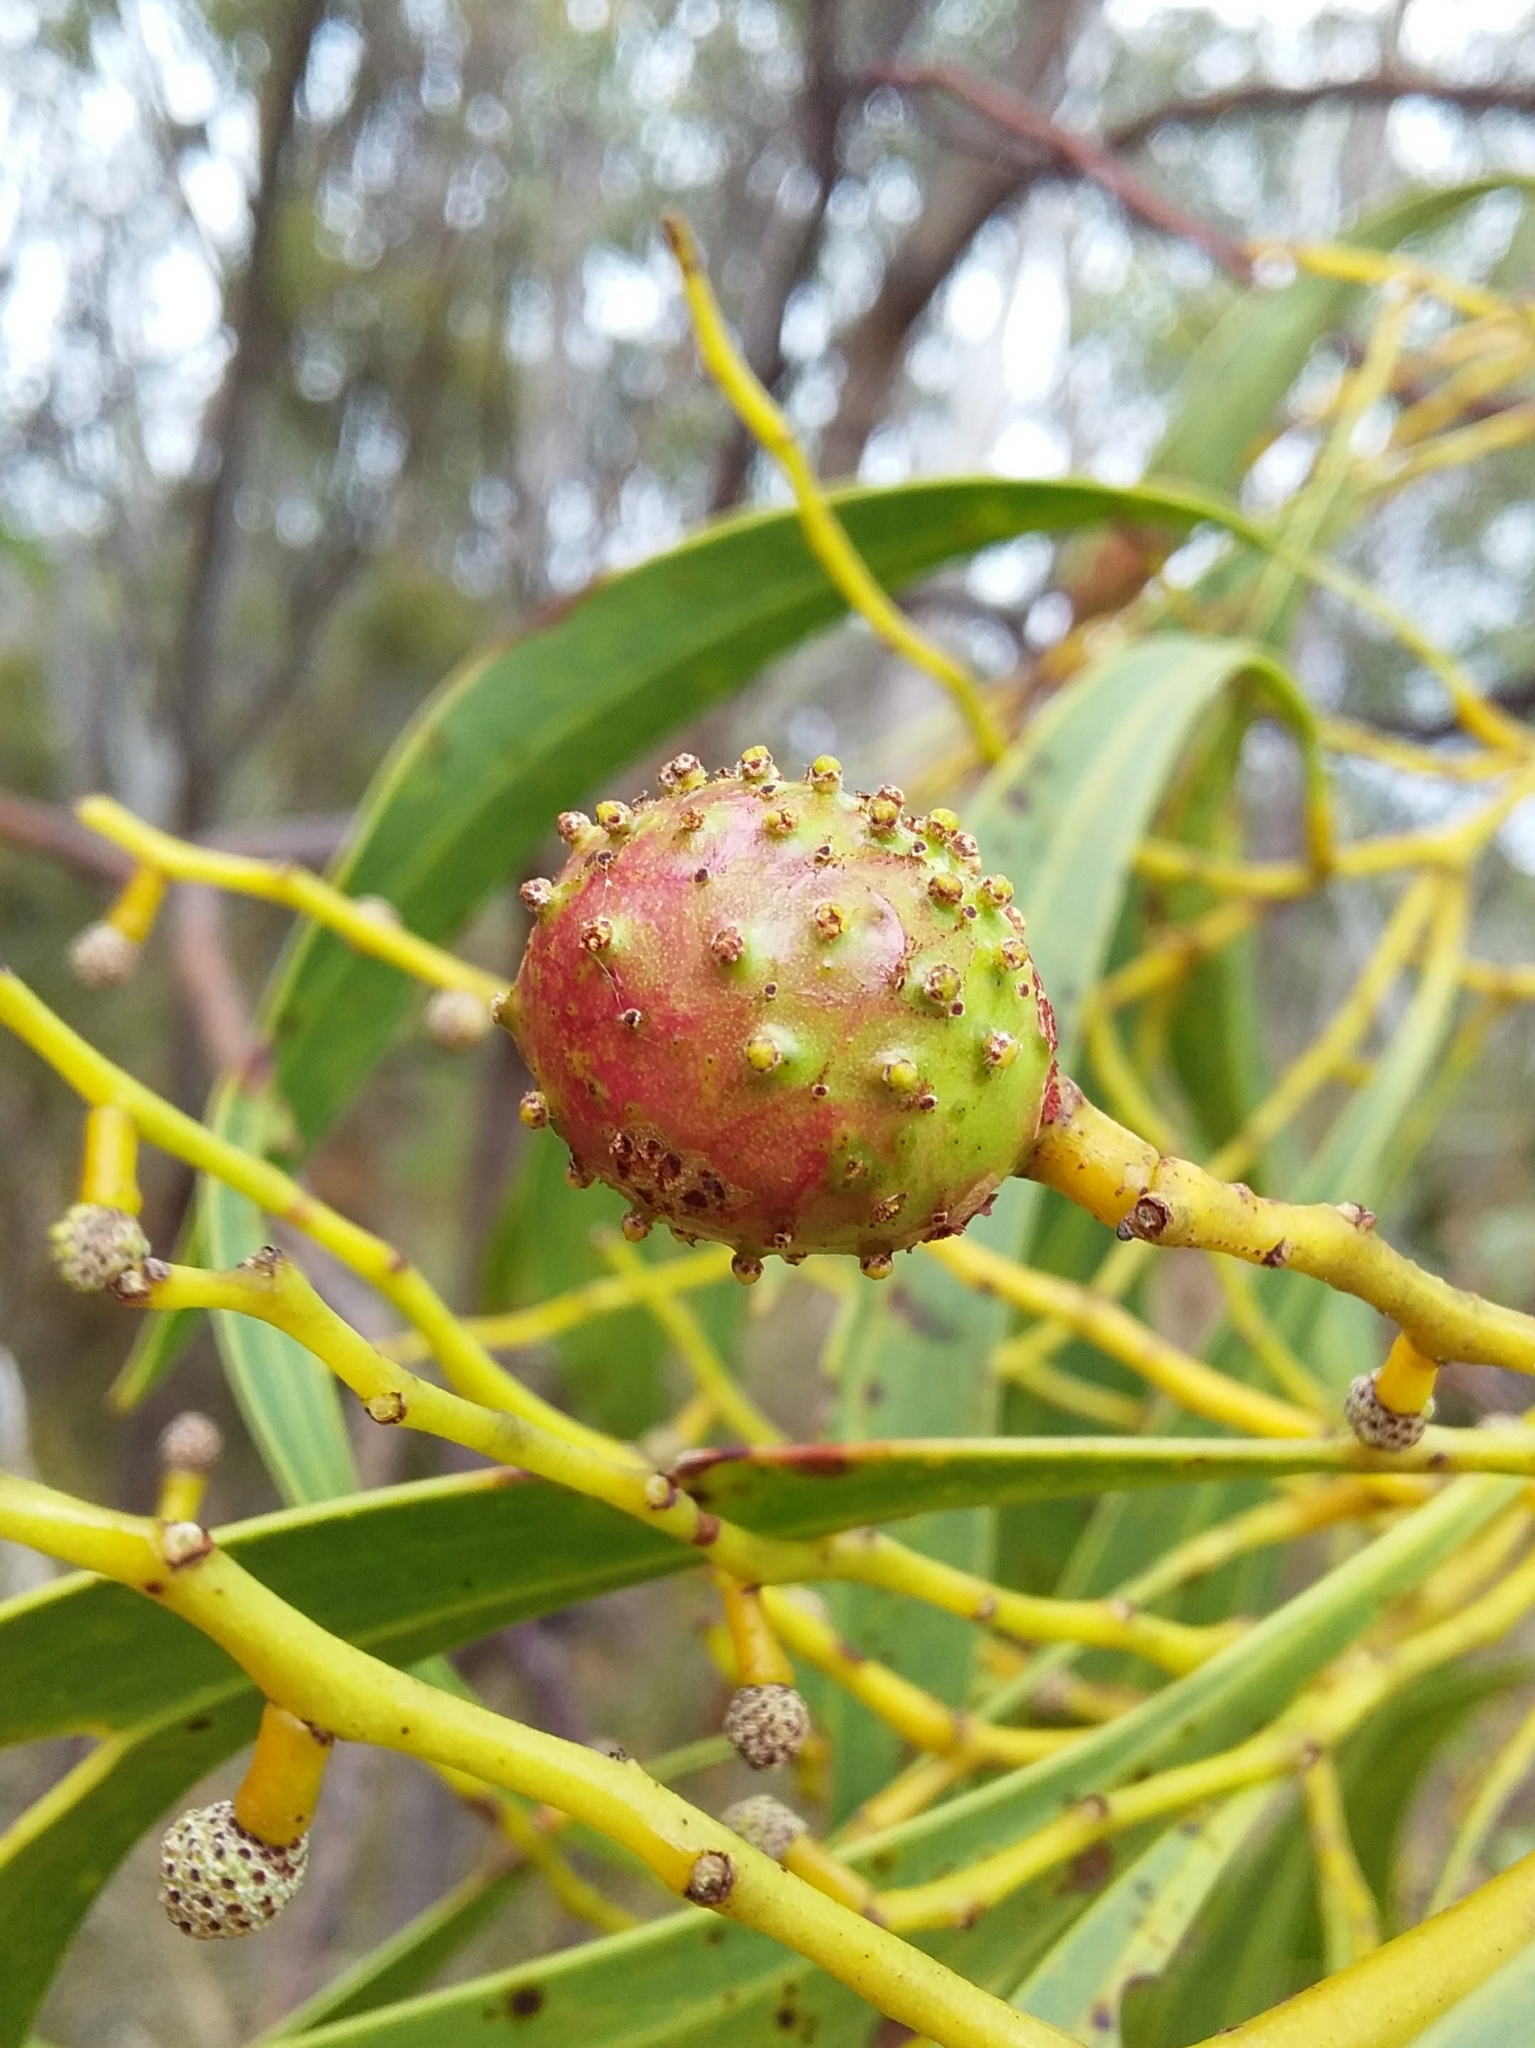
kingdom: Animalia
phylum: Arthropoda
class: Insecta
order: Hymenoptera
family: Pteromalidae
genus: Trichilogaster
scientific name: Trichilogaster signiventris
